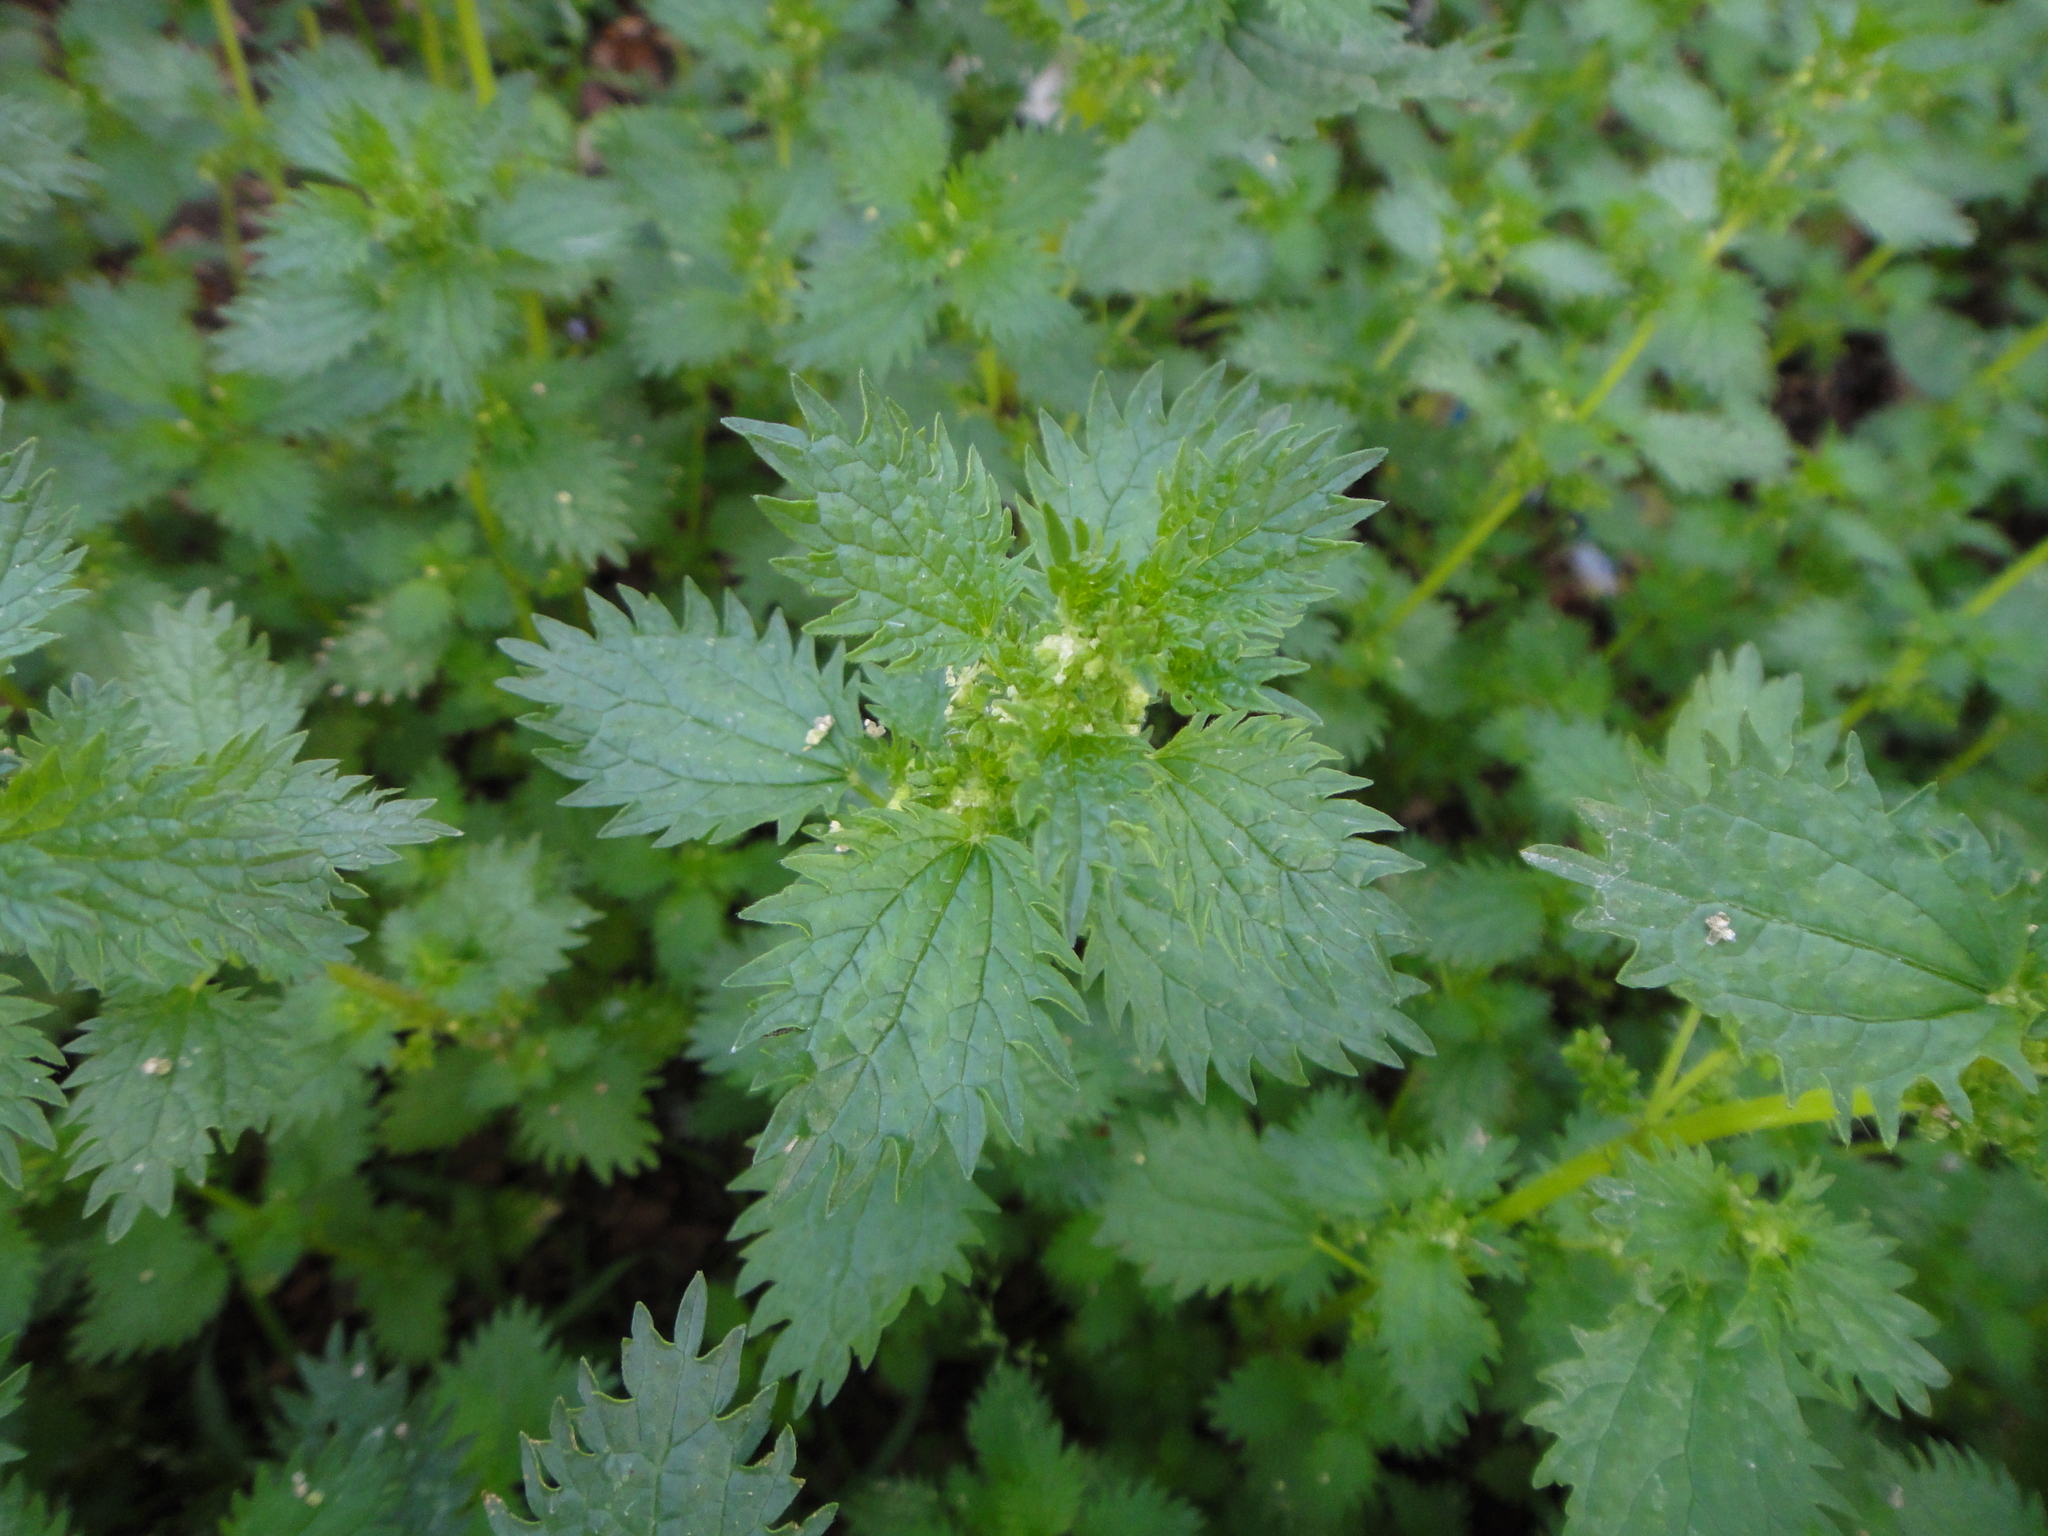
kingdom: Plantae
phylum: Tracheophyta
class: Magnoliopsida
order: Rosales
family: Urticaceae
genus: Urtica
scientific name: Urtica urens
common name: Dwarf nettle
